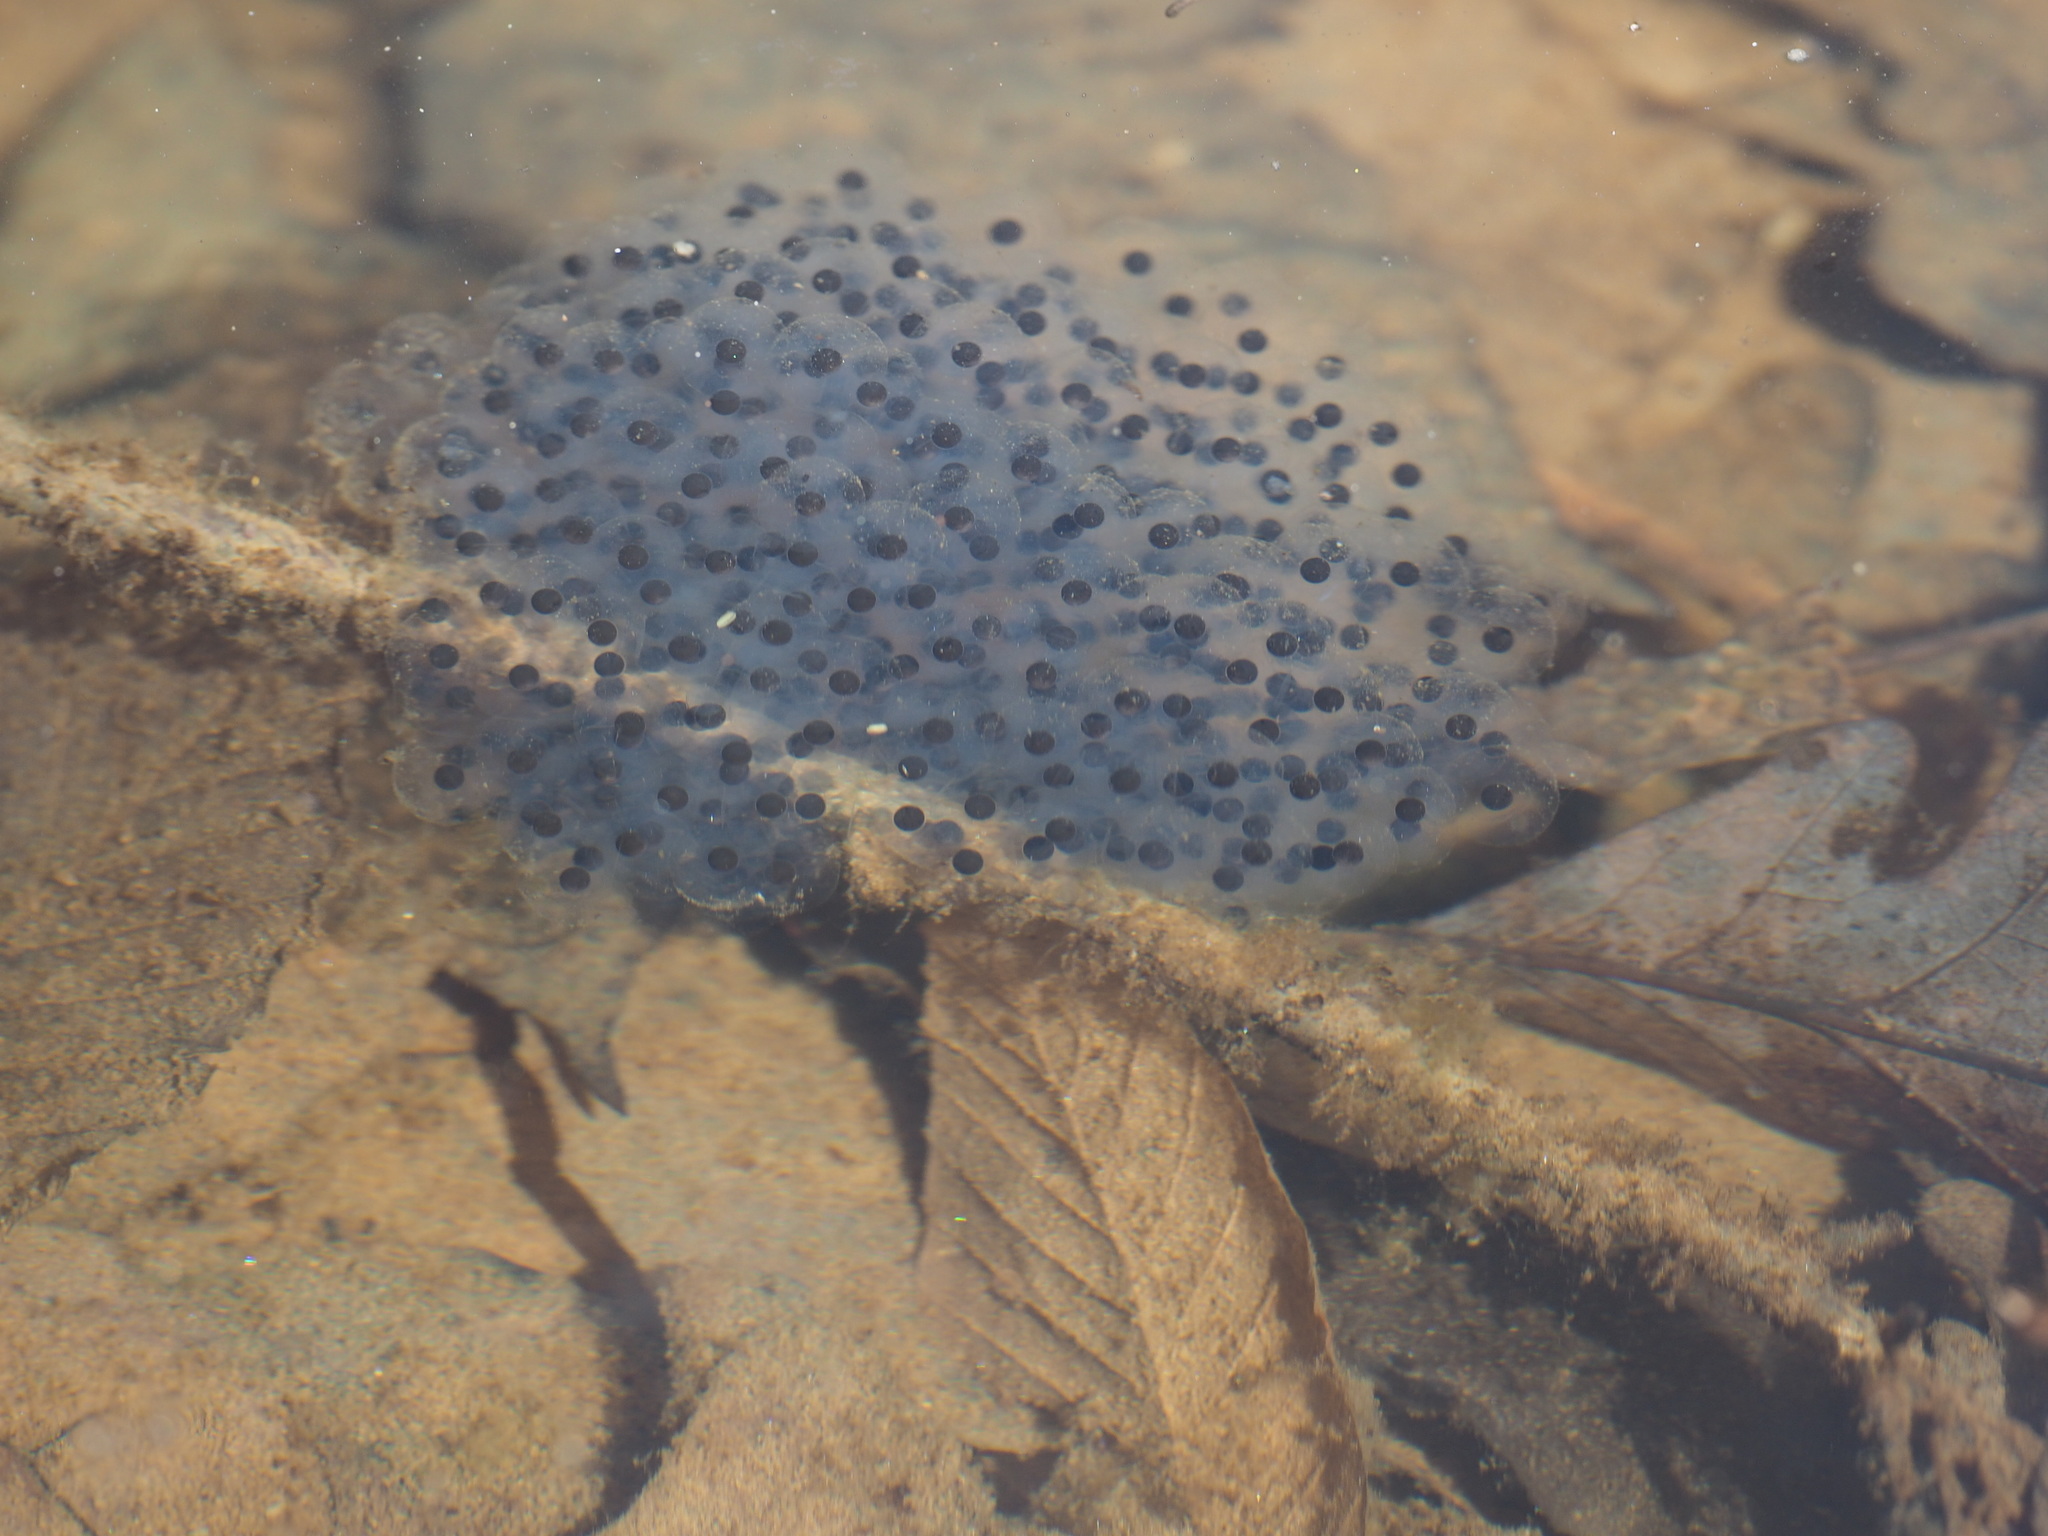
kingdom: Animalia
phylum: Chordata
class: Amphibia
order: Anura
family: Ranidae
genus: Lithobates
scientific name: Lithobates sylvaticus
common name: Wood frog
